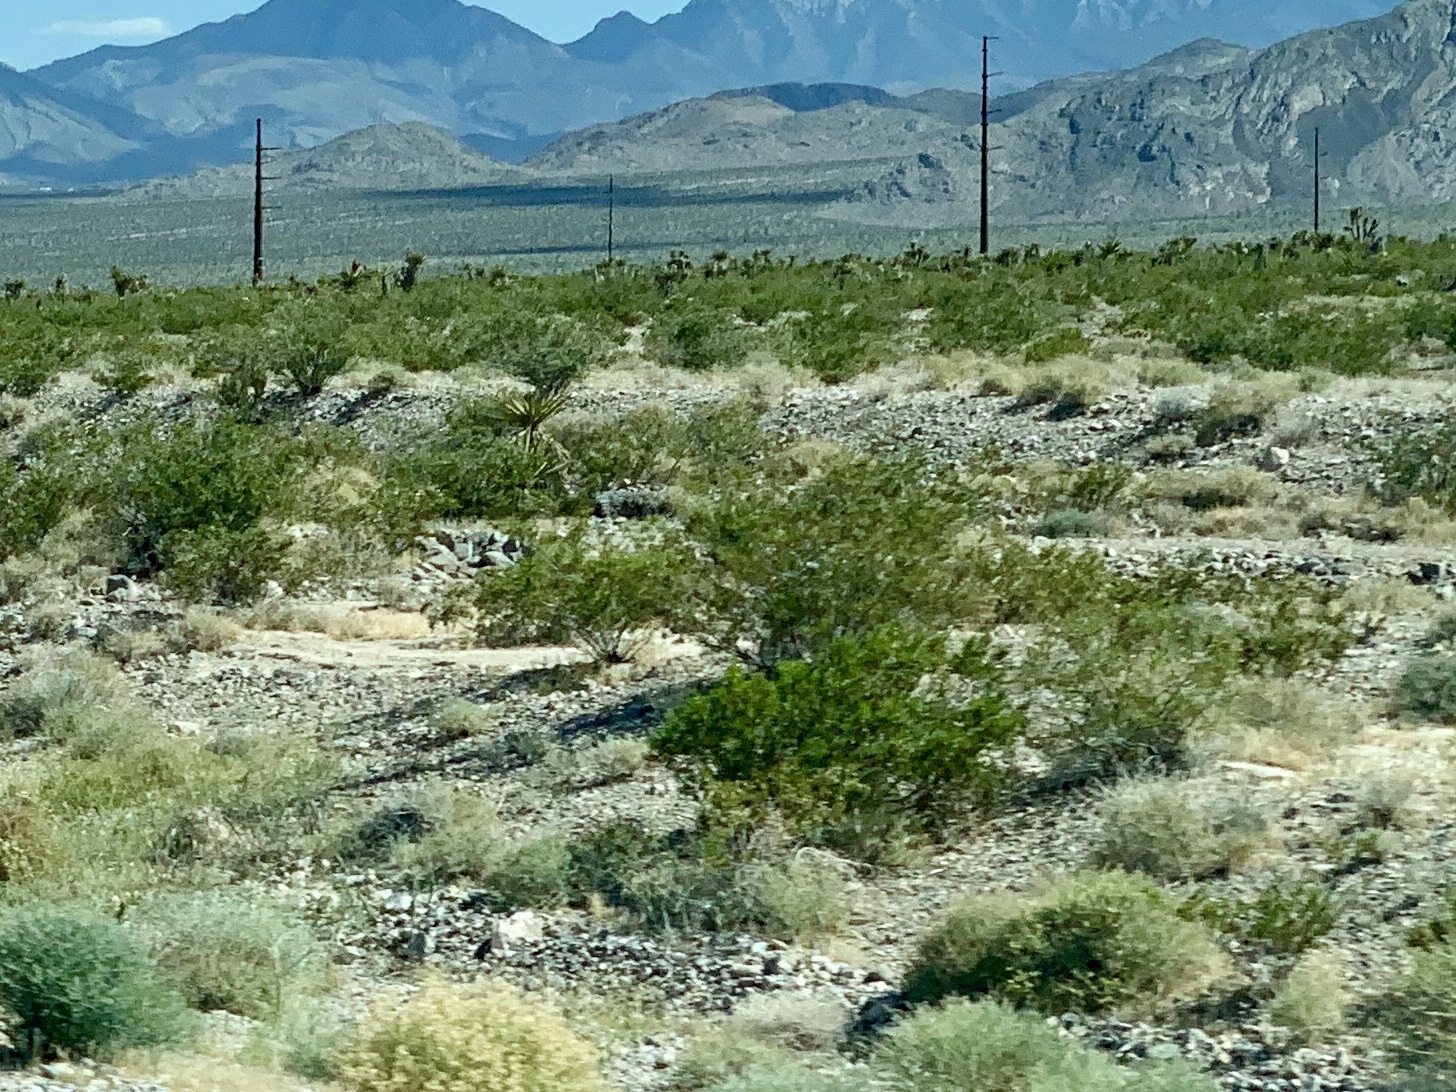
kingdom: Plantae
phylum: Tracheophyta
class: Magnoliopsida
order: Zygophyllales
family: Zygophyllaceae
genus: Larrea
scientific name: Larrea tridentata
